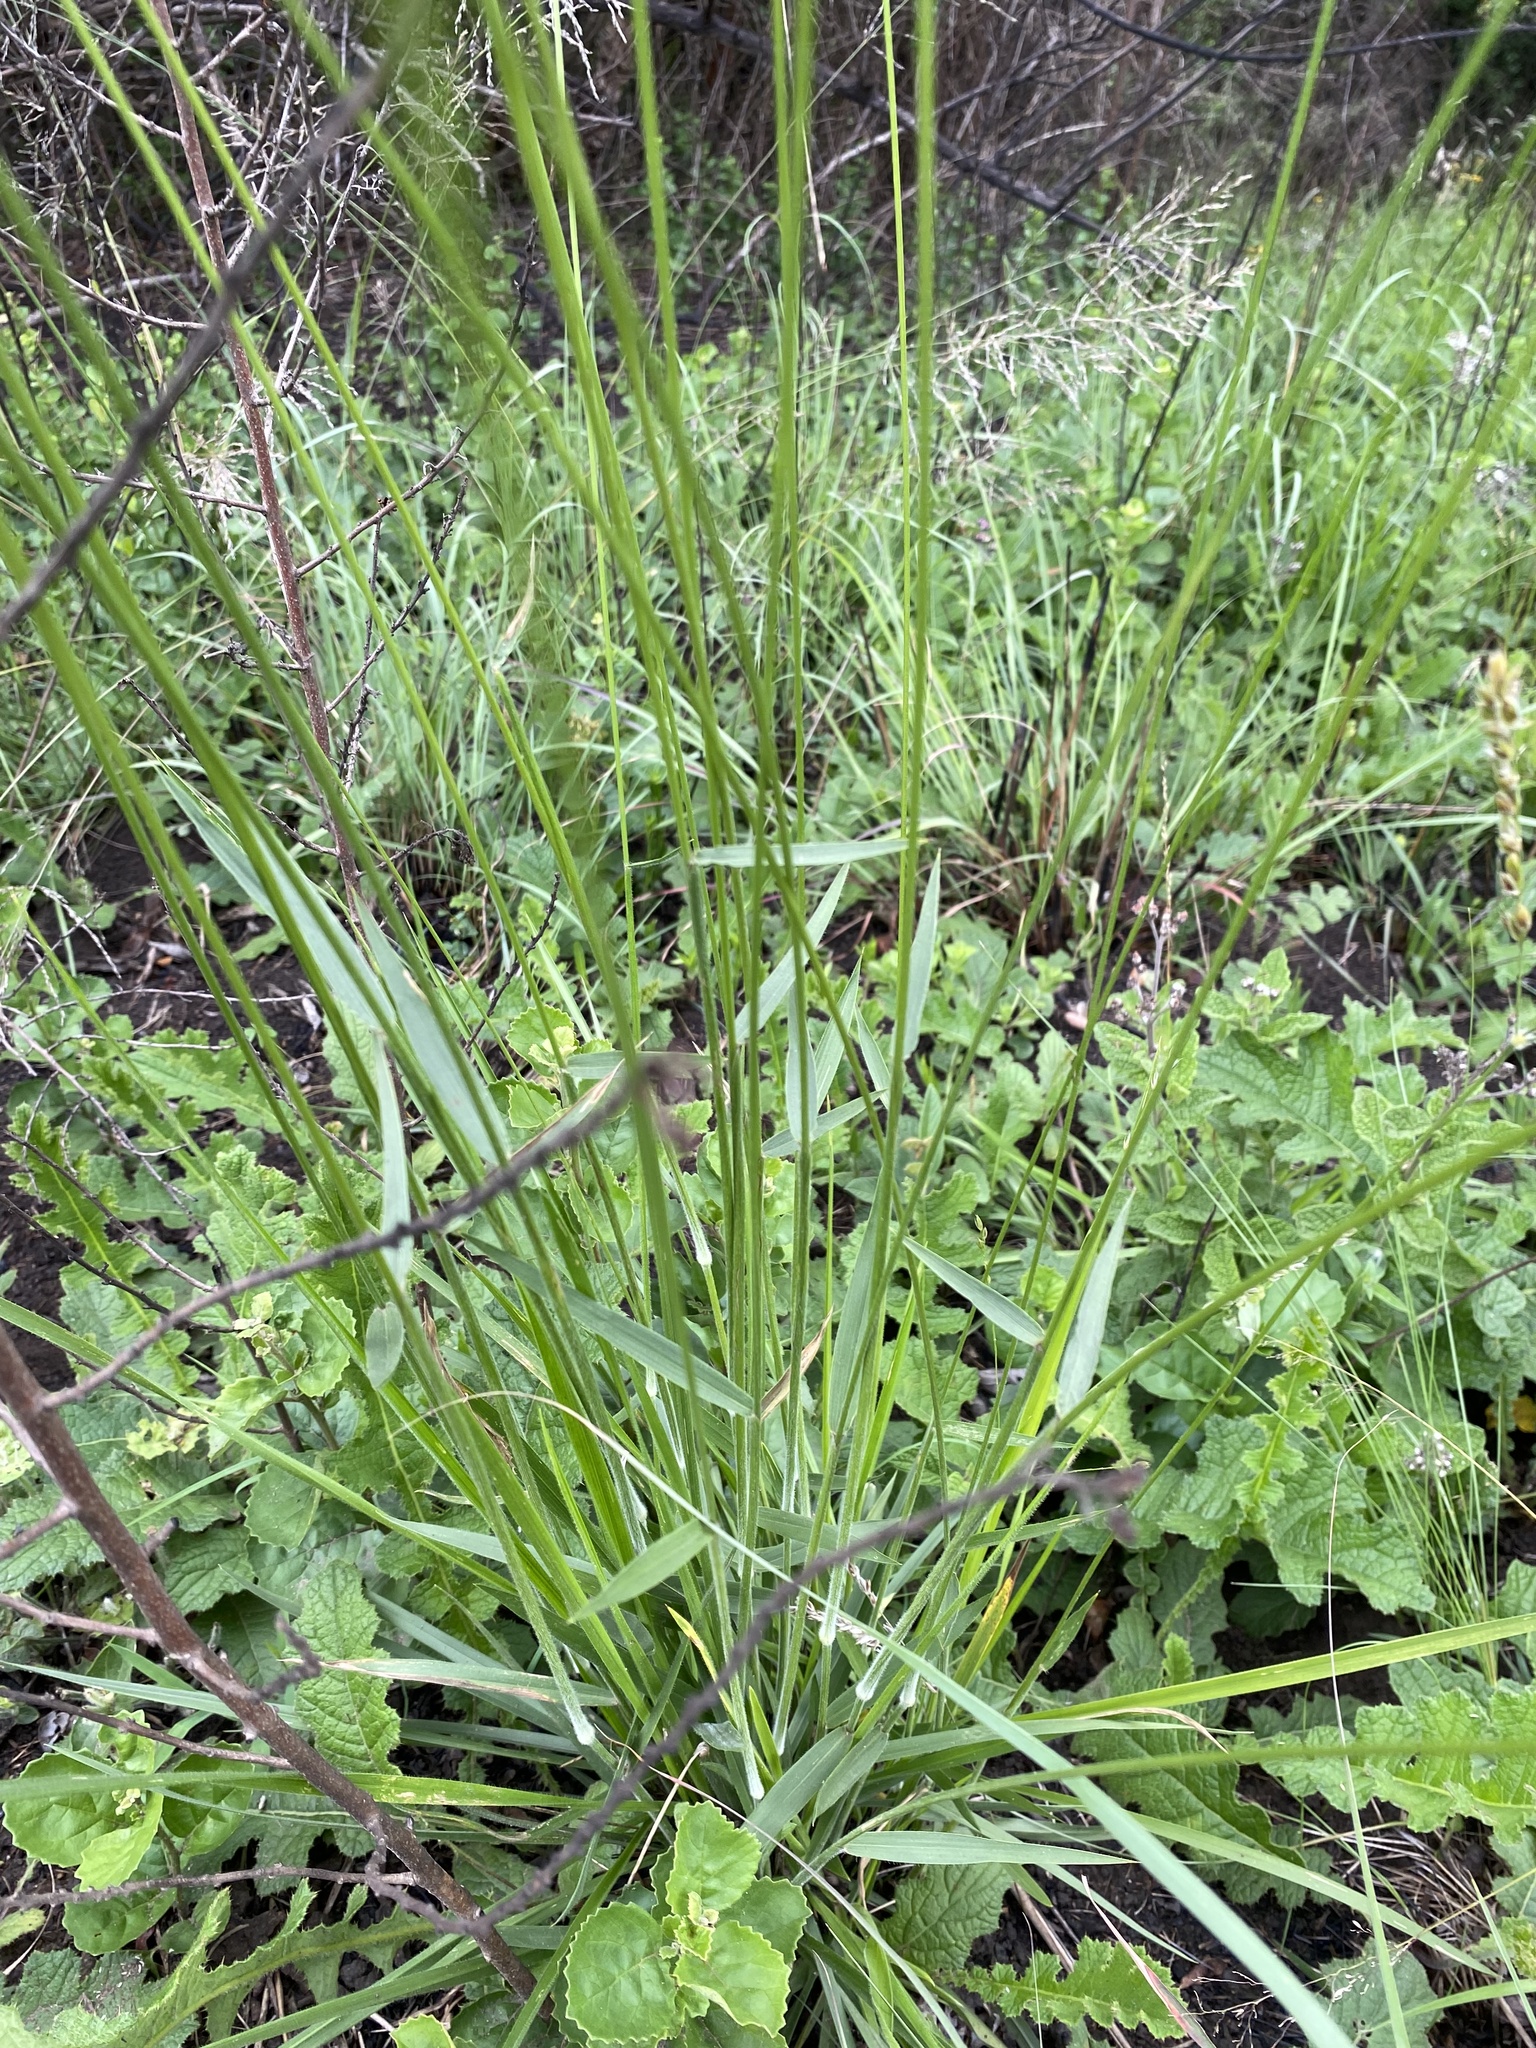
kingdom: Plantae
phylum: Tracheophyta
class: Liliopsida
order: Poales
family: Poaceae
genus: Alloteropsis
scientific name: Alloteropsis semialata
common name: Cockatoo grass
